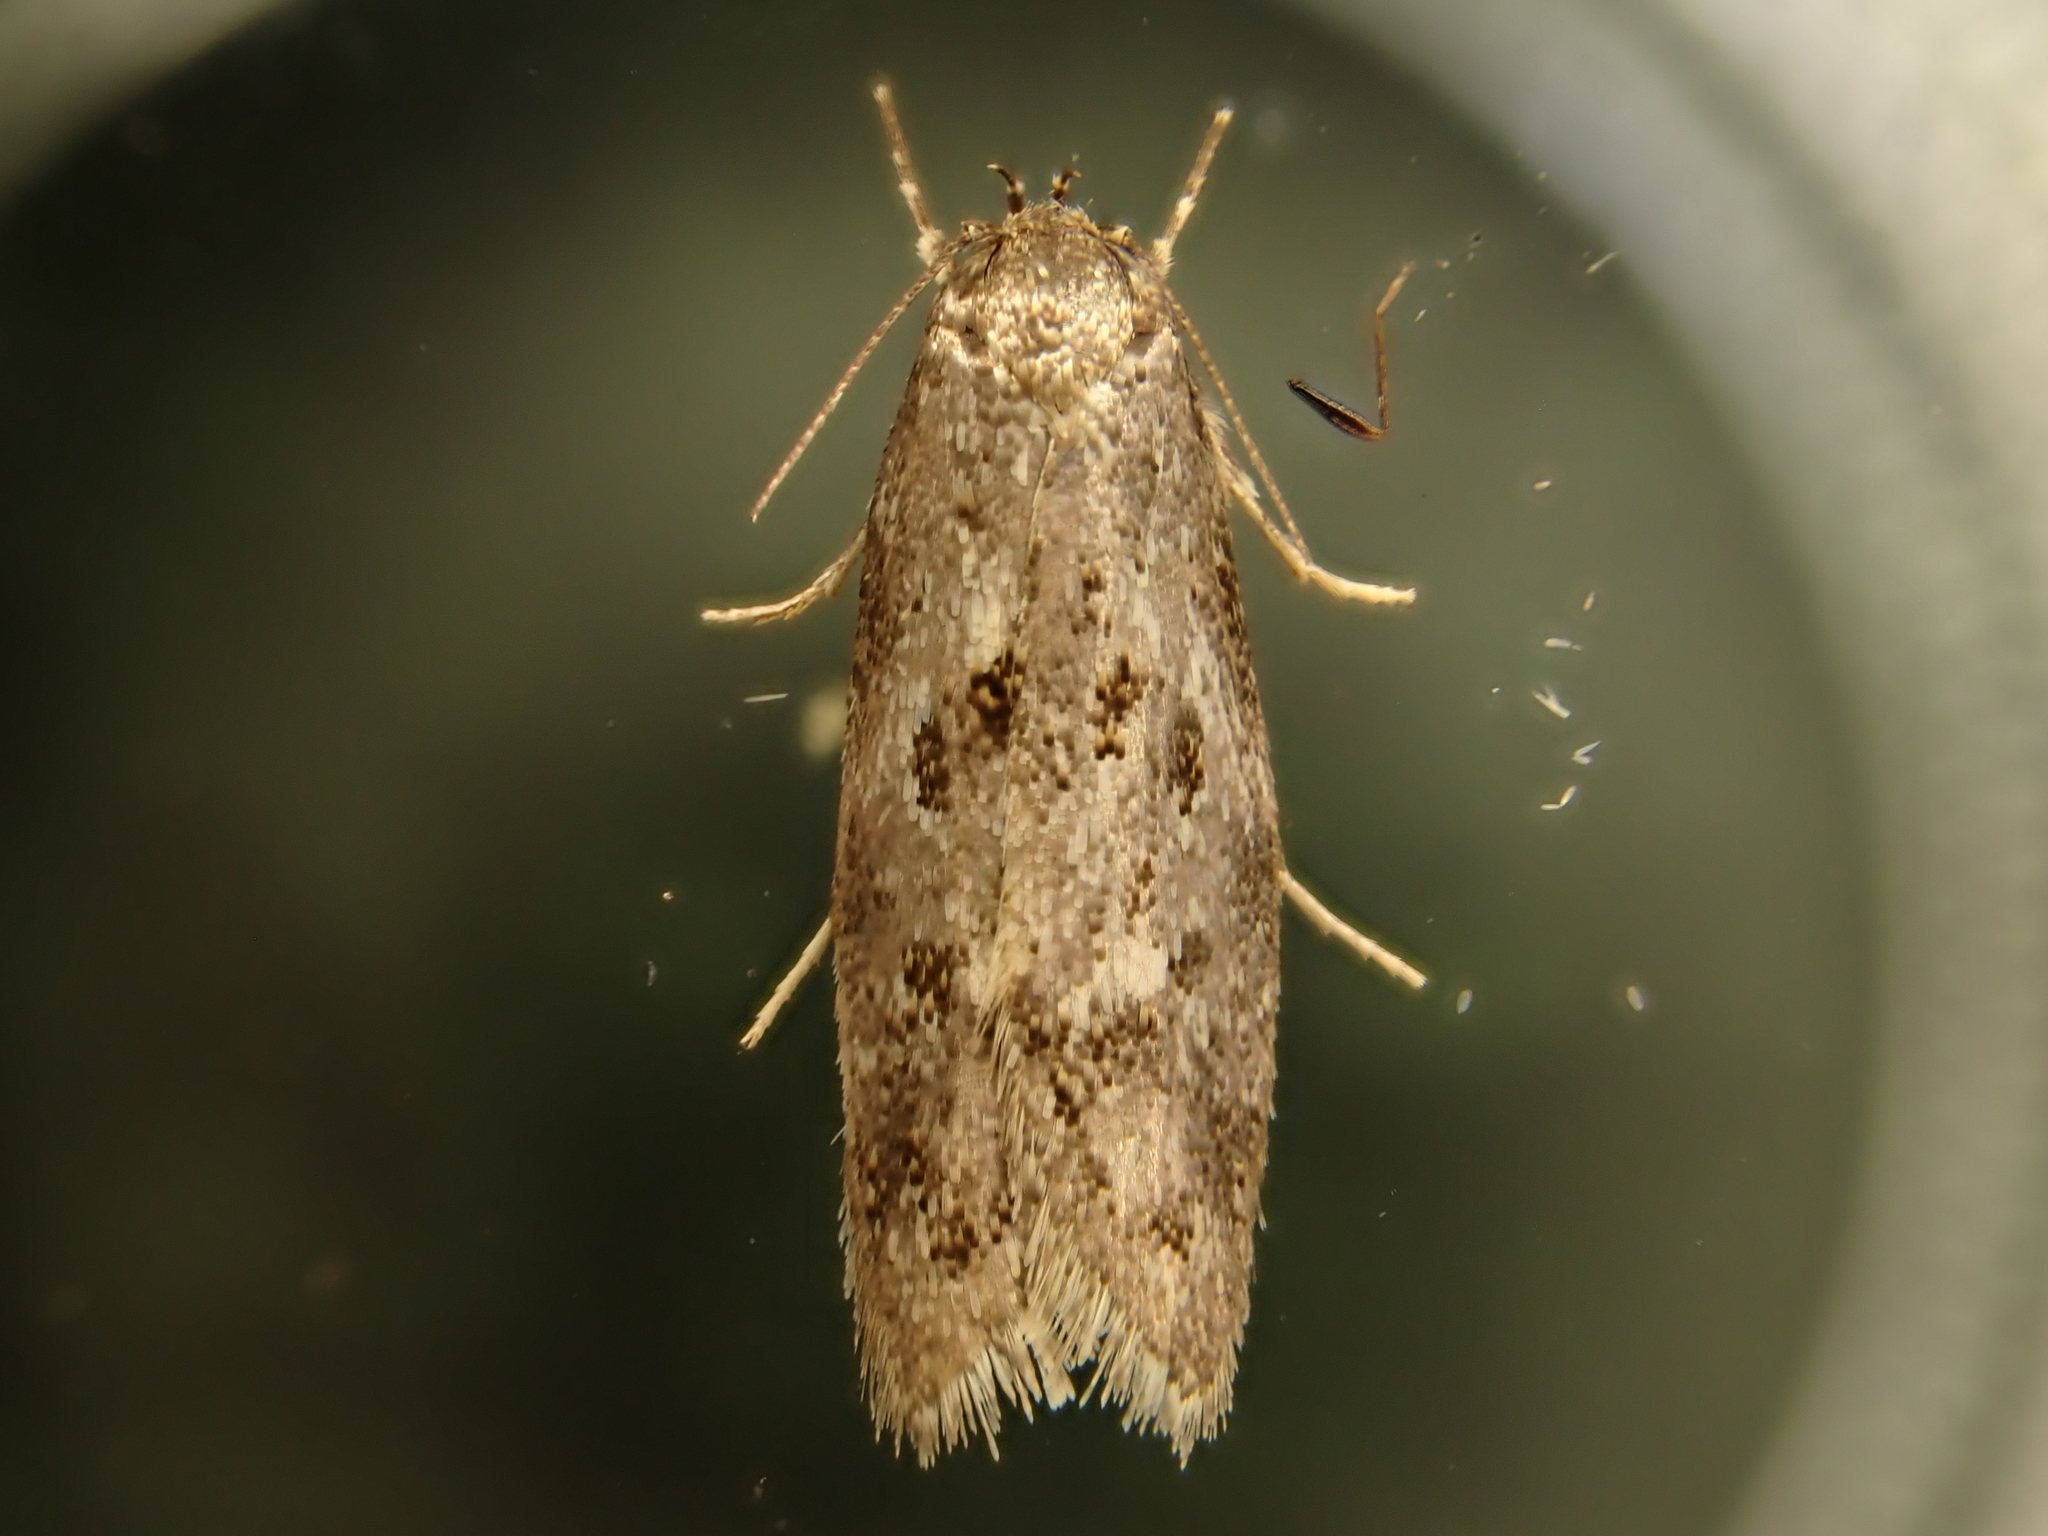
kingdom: Animalia
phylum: Arthropoda
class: Insecta
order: Lepidoptera
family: Oecophoridae
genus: Tingena
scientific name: Tingena clarkei
